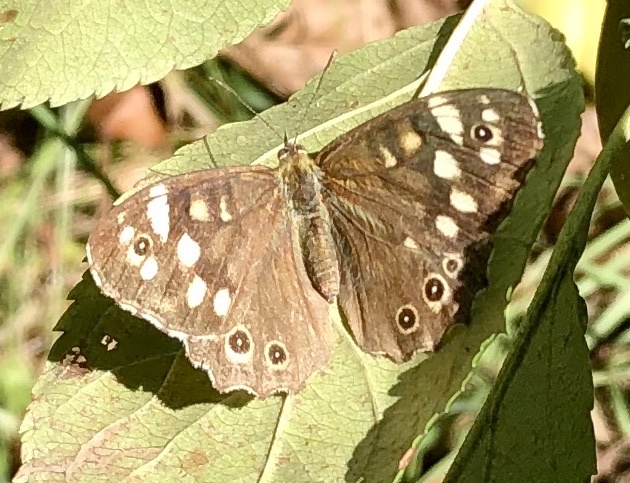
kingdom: Animalia
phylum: Arthropoda
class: Insecta
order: Lepidoptera
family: Nymphalidae
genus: Pararge
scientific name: Pararge aegeria
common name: Speckled wood
